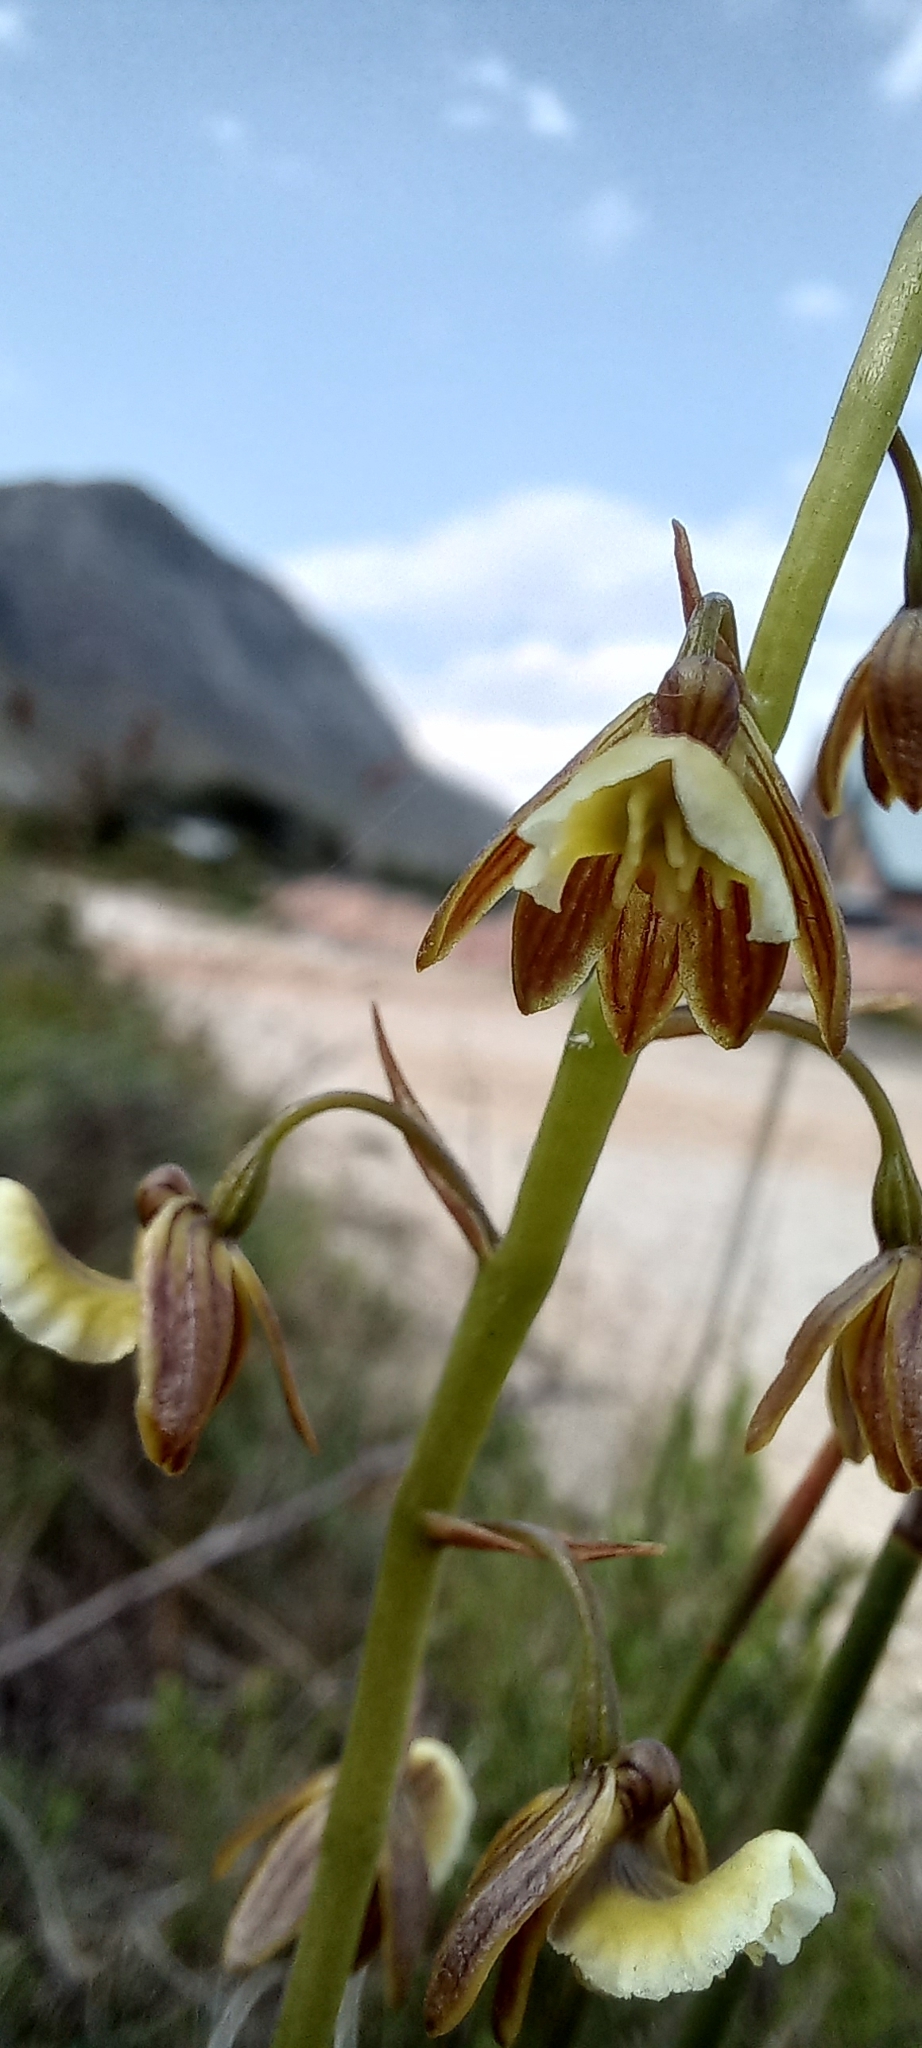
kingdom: Plantae
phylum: Tracheophyta
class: Liliopsida
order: Asparagales
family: Orchidaceae
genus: Eulophia
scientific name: Eulophia bolusii
